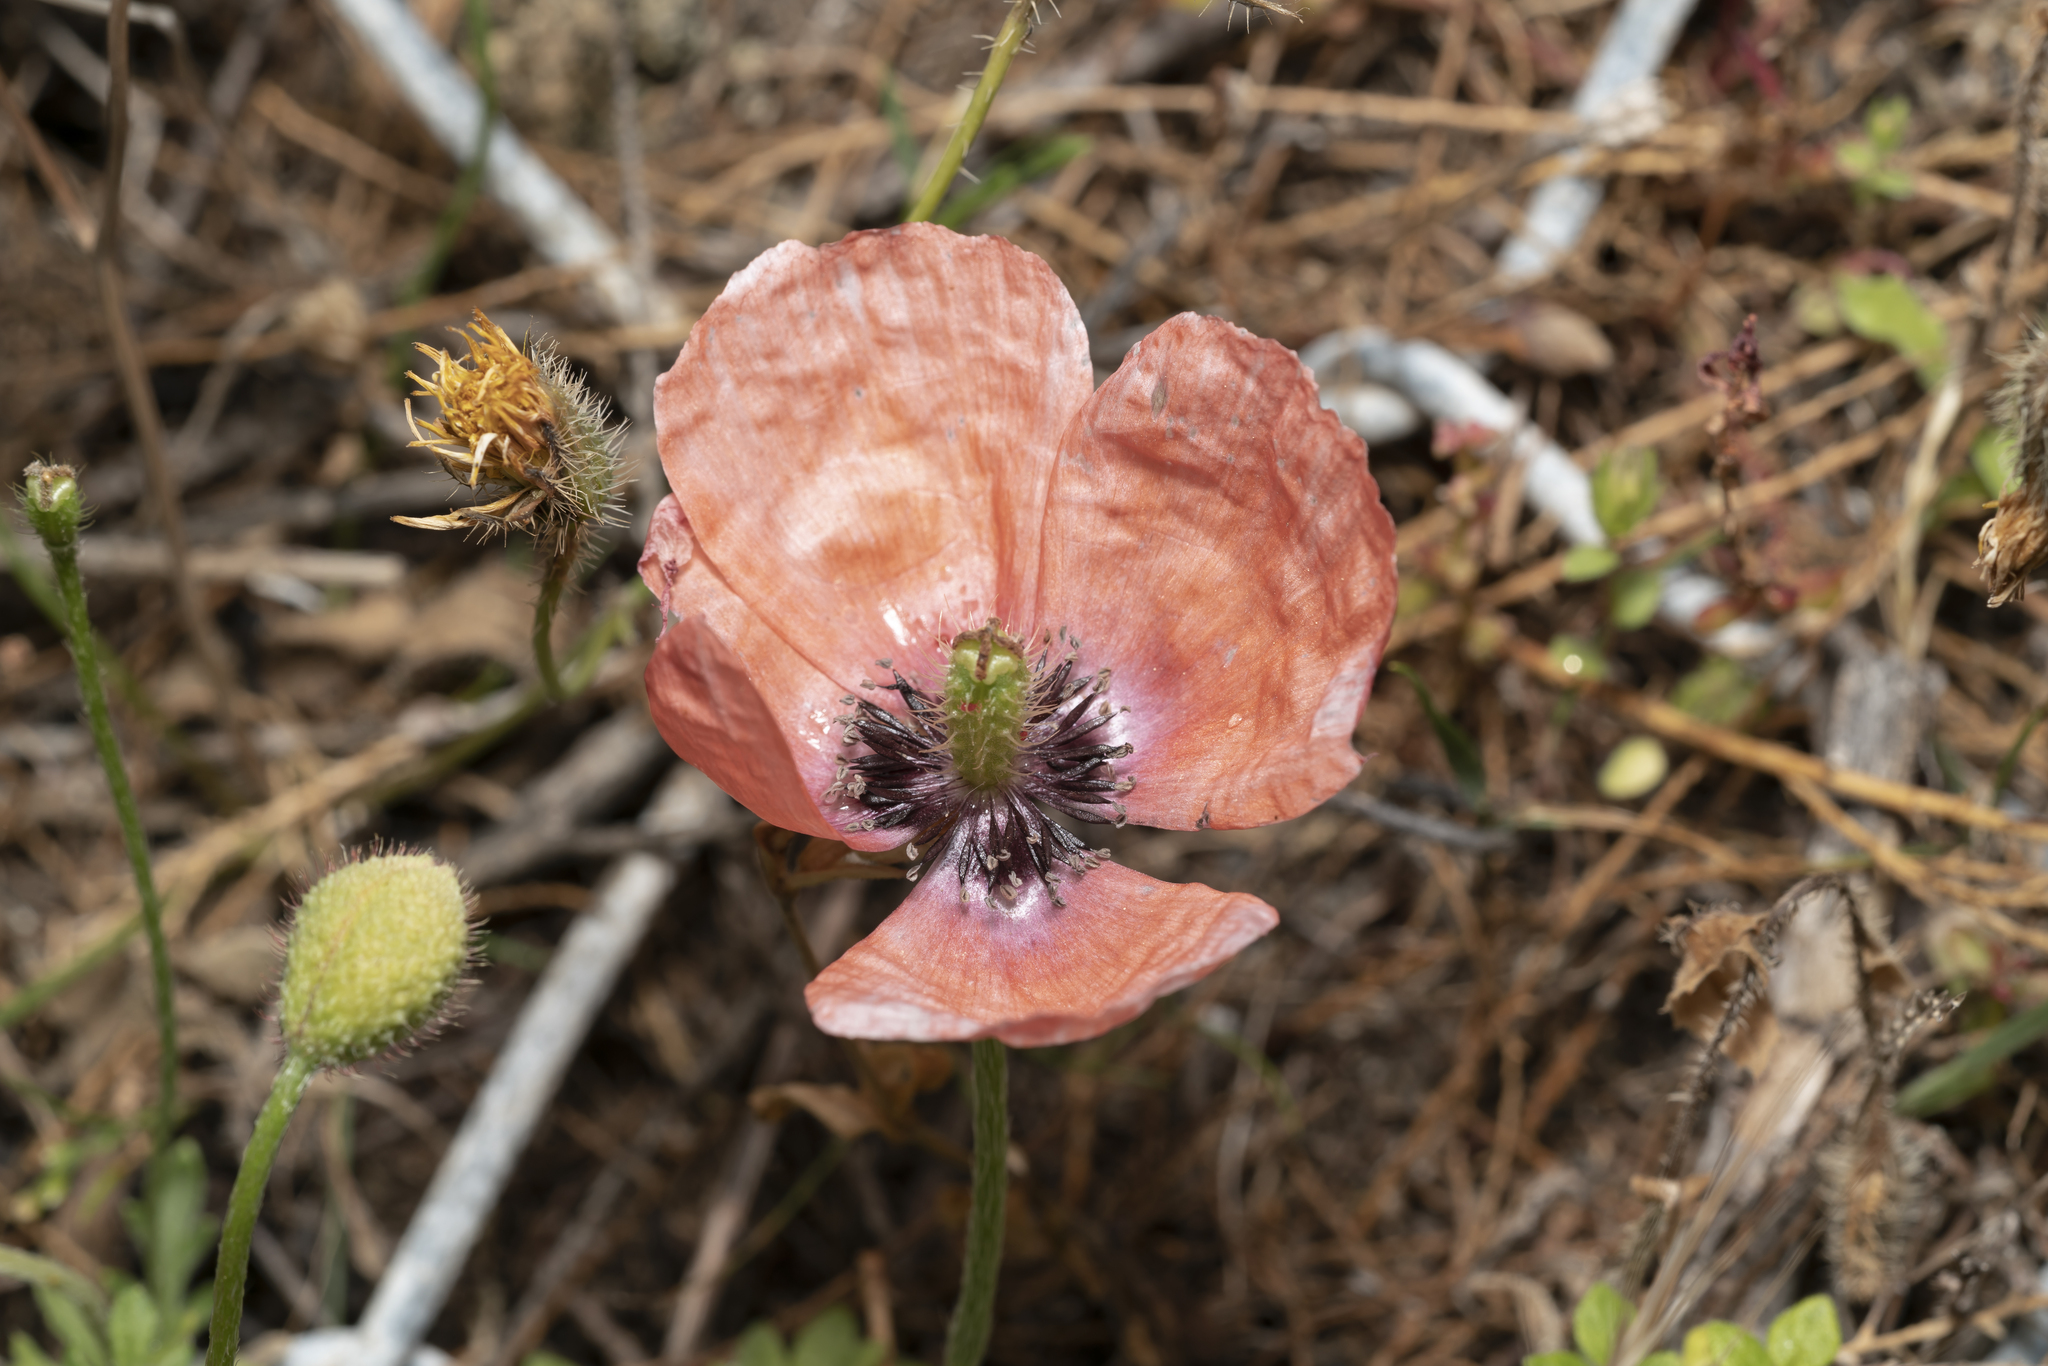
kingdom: Plantae
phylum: Tracheophyta
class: Magnoliopsida
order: Ranunculales
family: Papaveraceae
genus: Roemeria
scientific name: Roemeria nigrotincta
